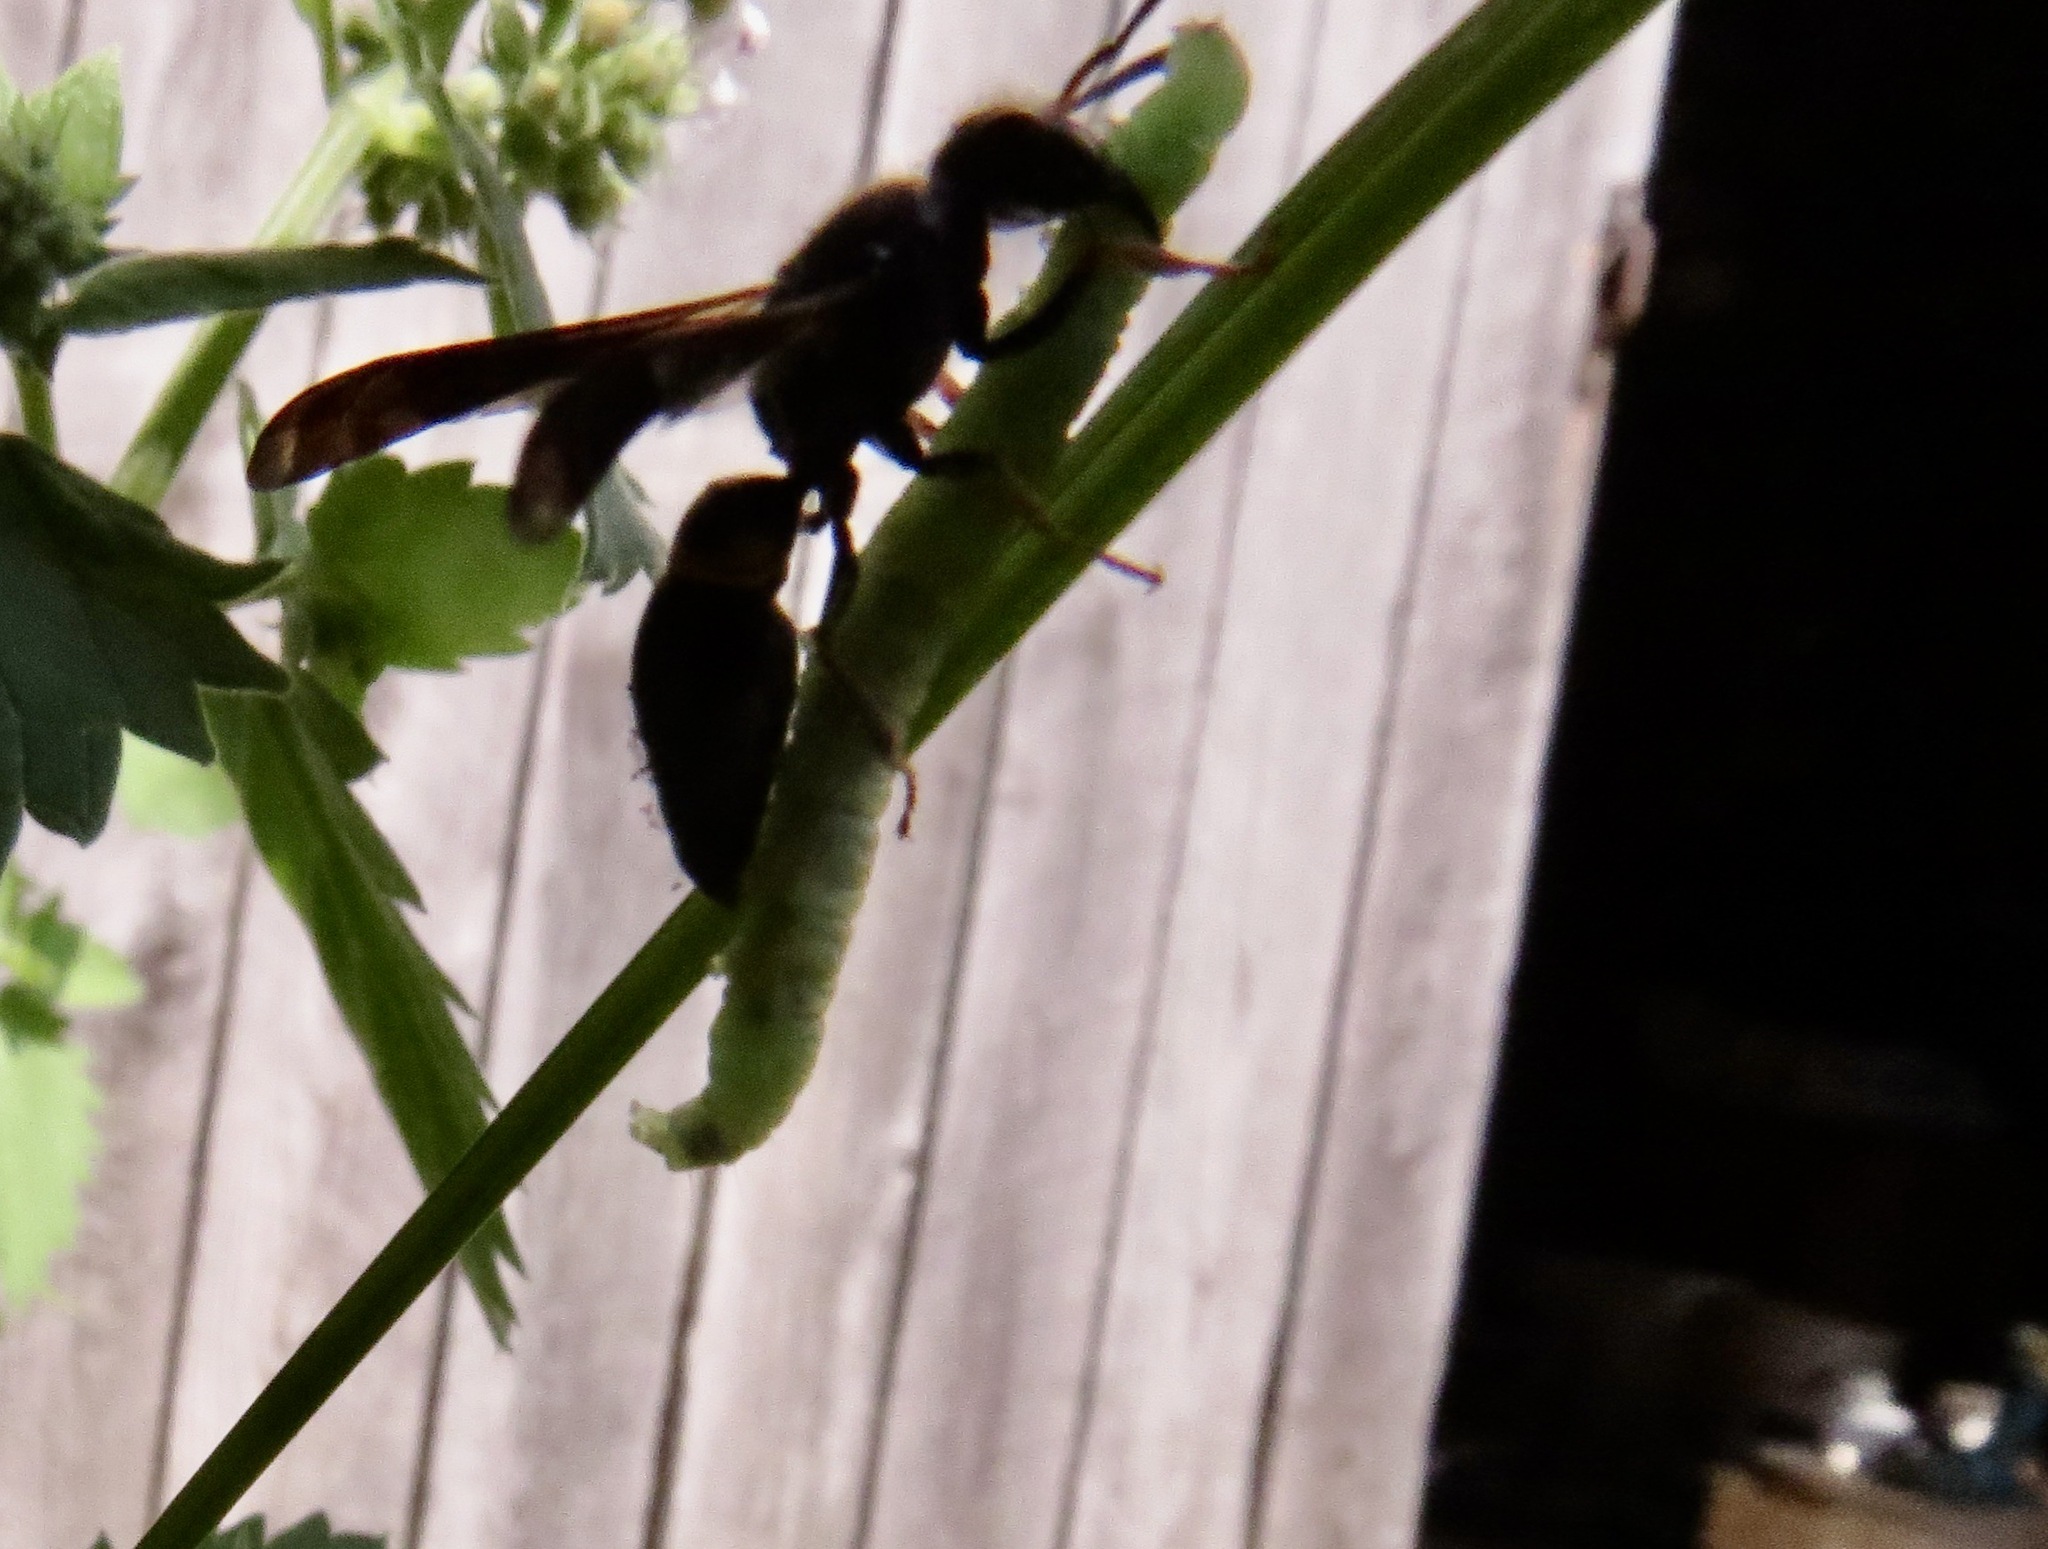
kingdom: Animalia
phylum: Arthropoda
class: Insecta
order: Hymenoptera
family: Vespidae
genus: Ancistrocerus
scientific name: Ancistrocerus unifasciatus
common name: One-banded mason wasp
